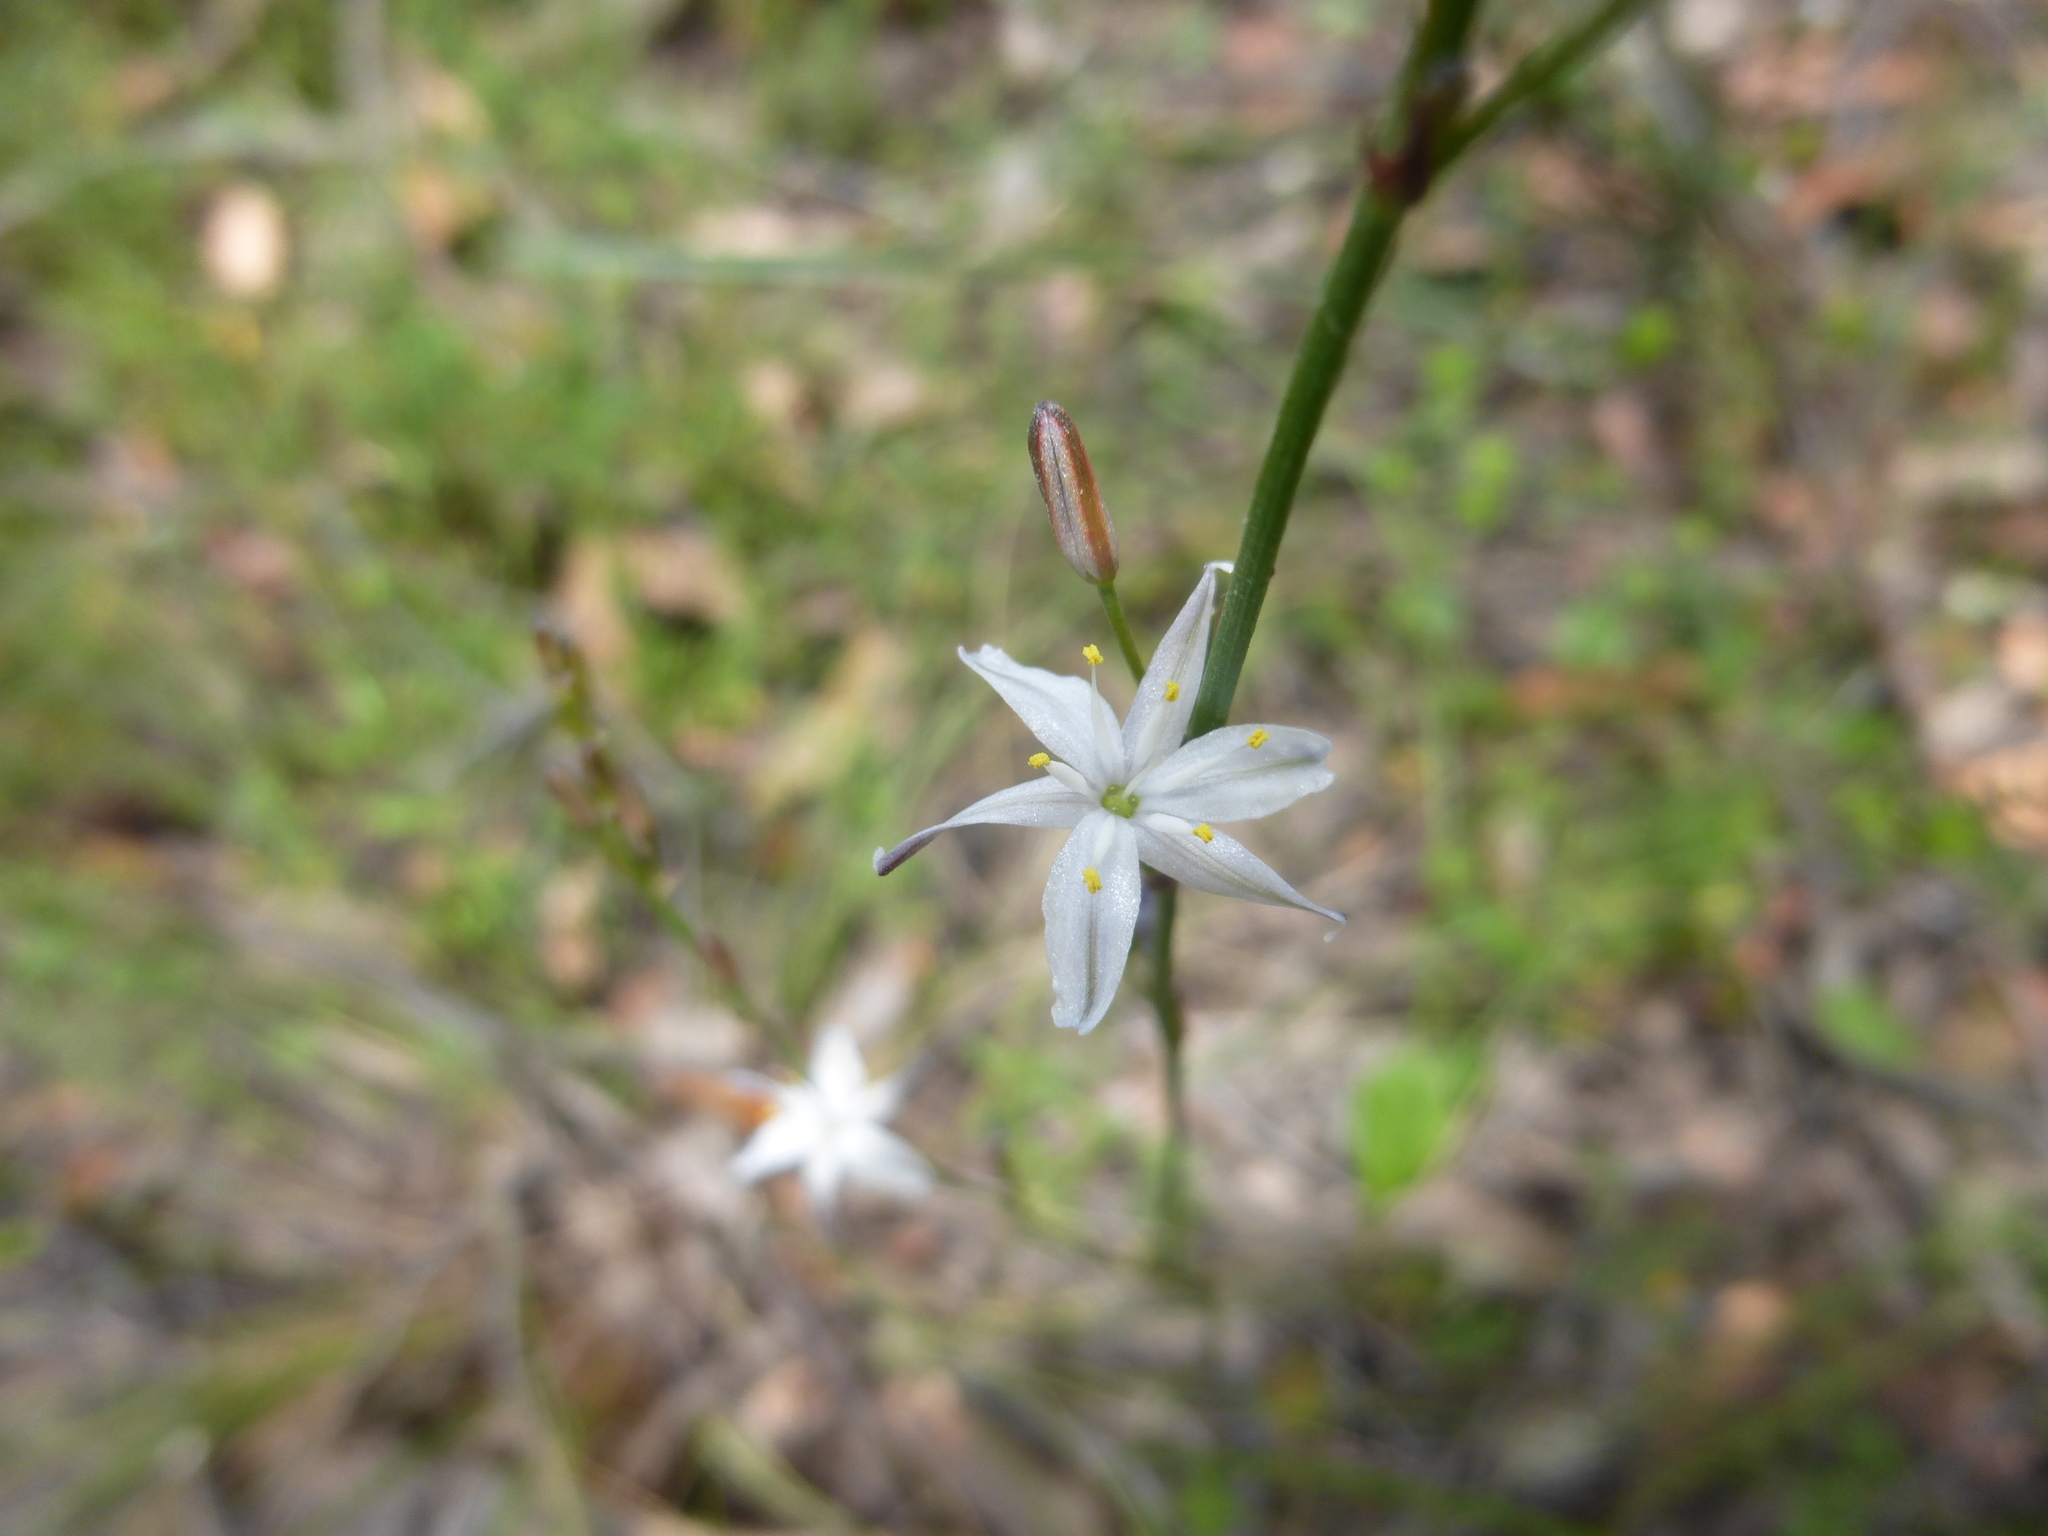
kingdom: Plantae
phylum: Tracheophyta
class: Liliopsida
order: Asparagales
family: Asphodelaceae
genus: Caesia
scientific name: Caesia parviflora
